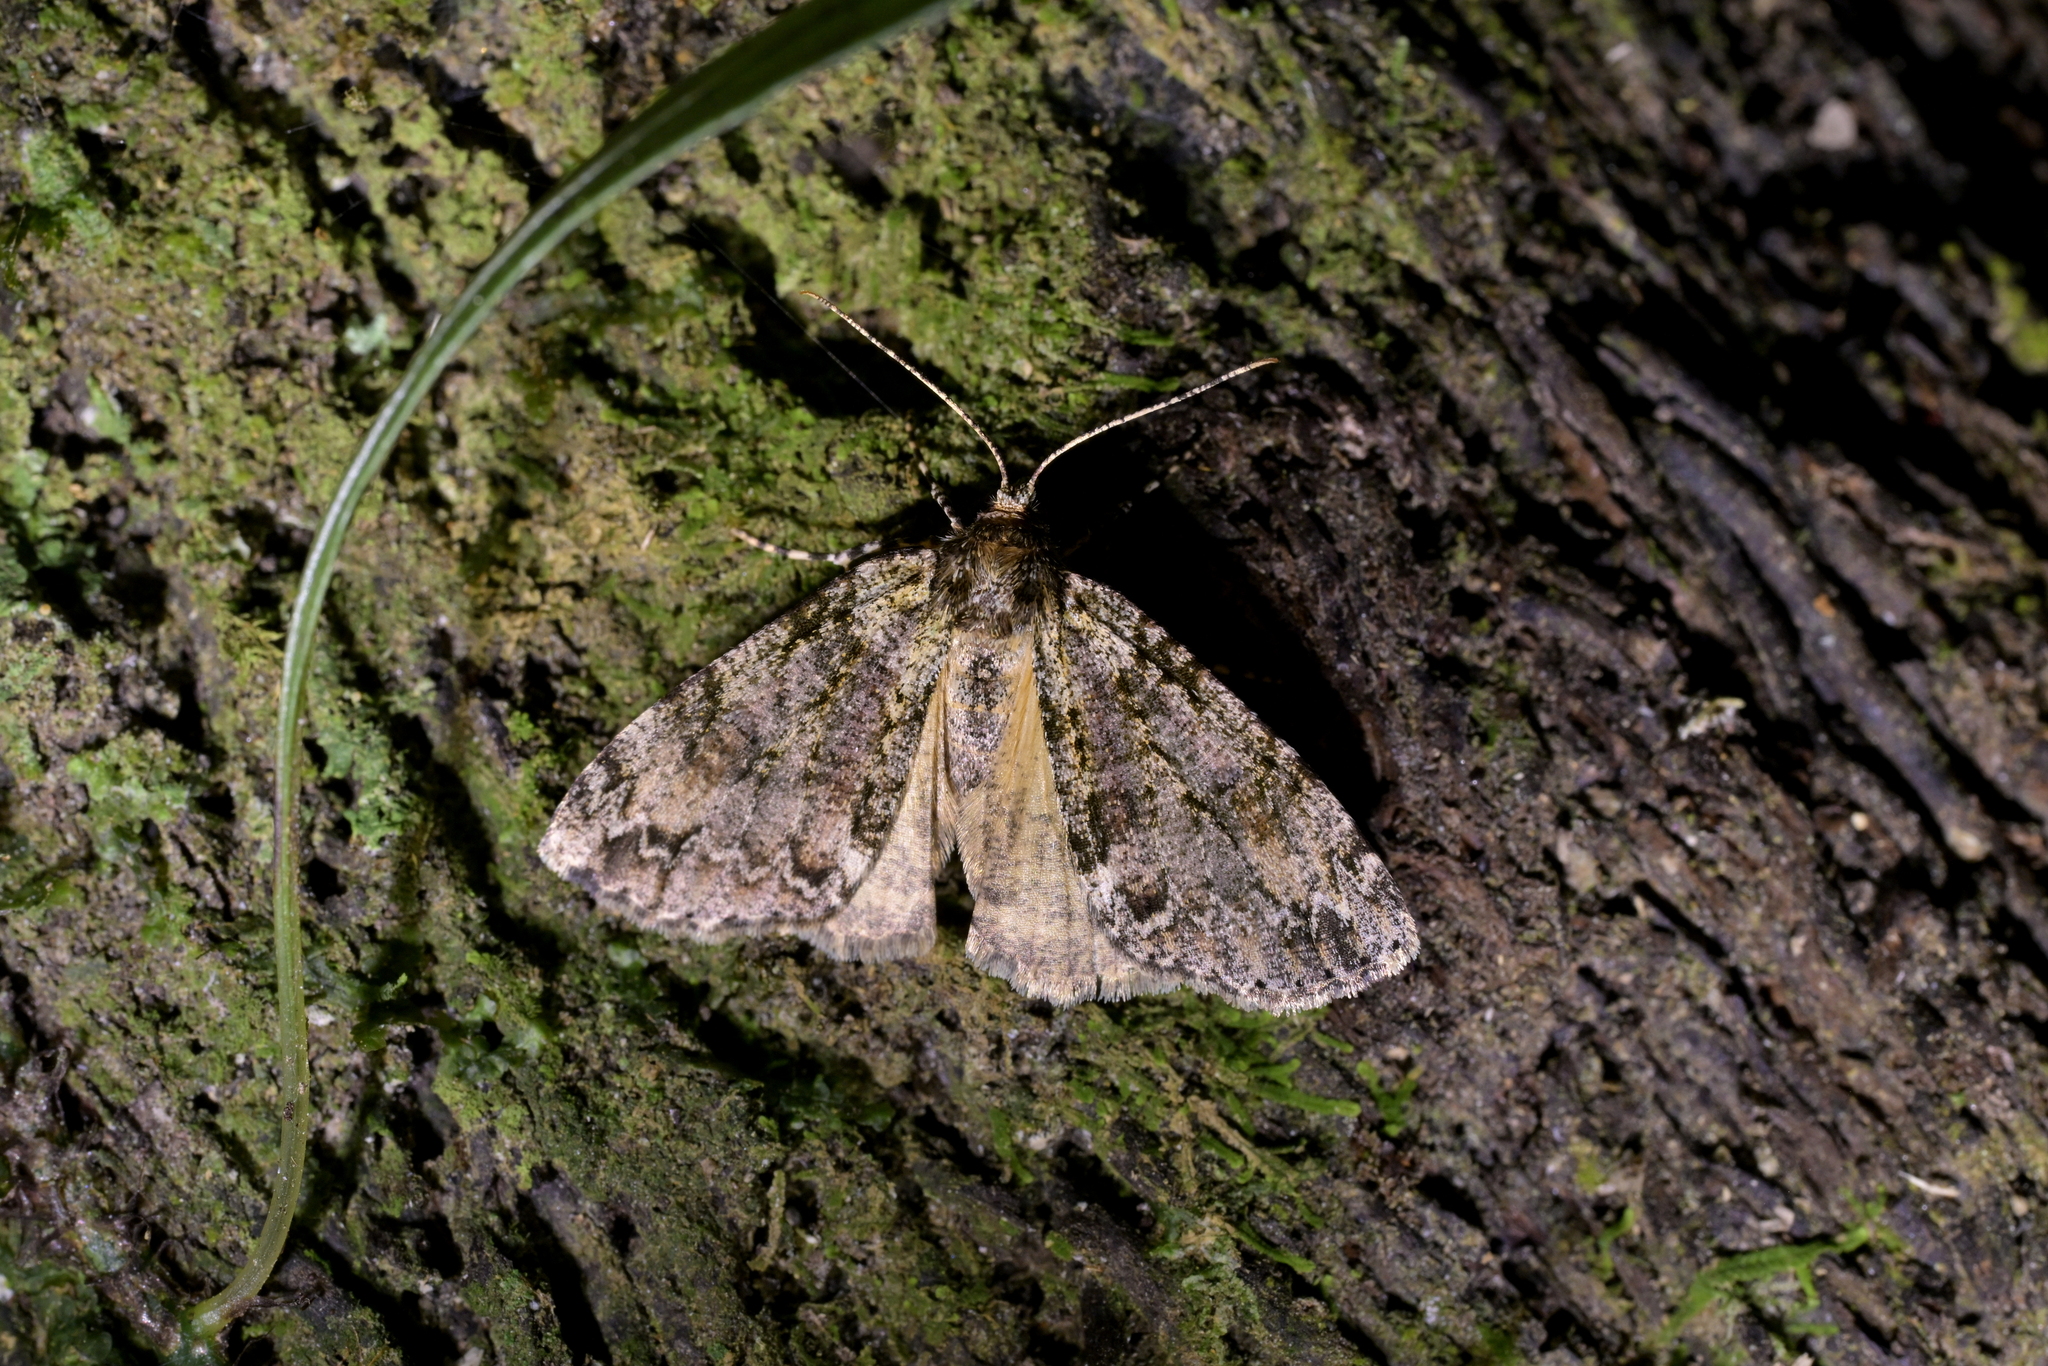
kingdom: Animalia
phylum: Arthropoda
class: Insecta
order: Lepidoptera
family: Geometridae
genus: Pseudocoremia
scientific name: Pseudocoremia suavis
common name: Common forest looper
